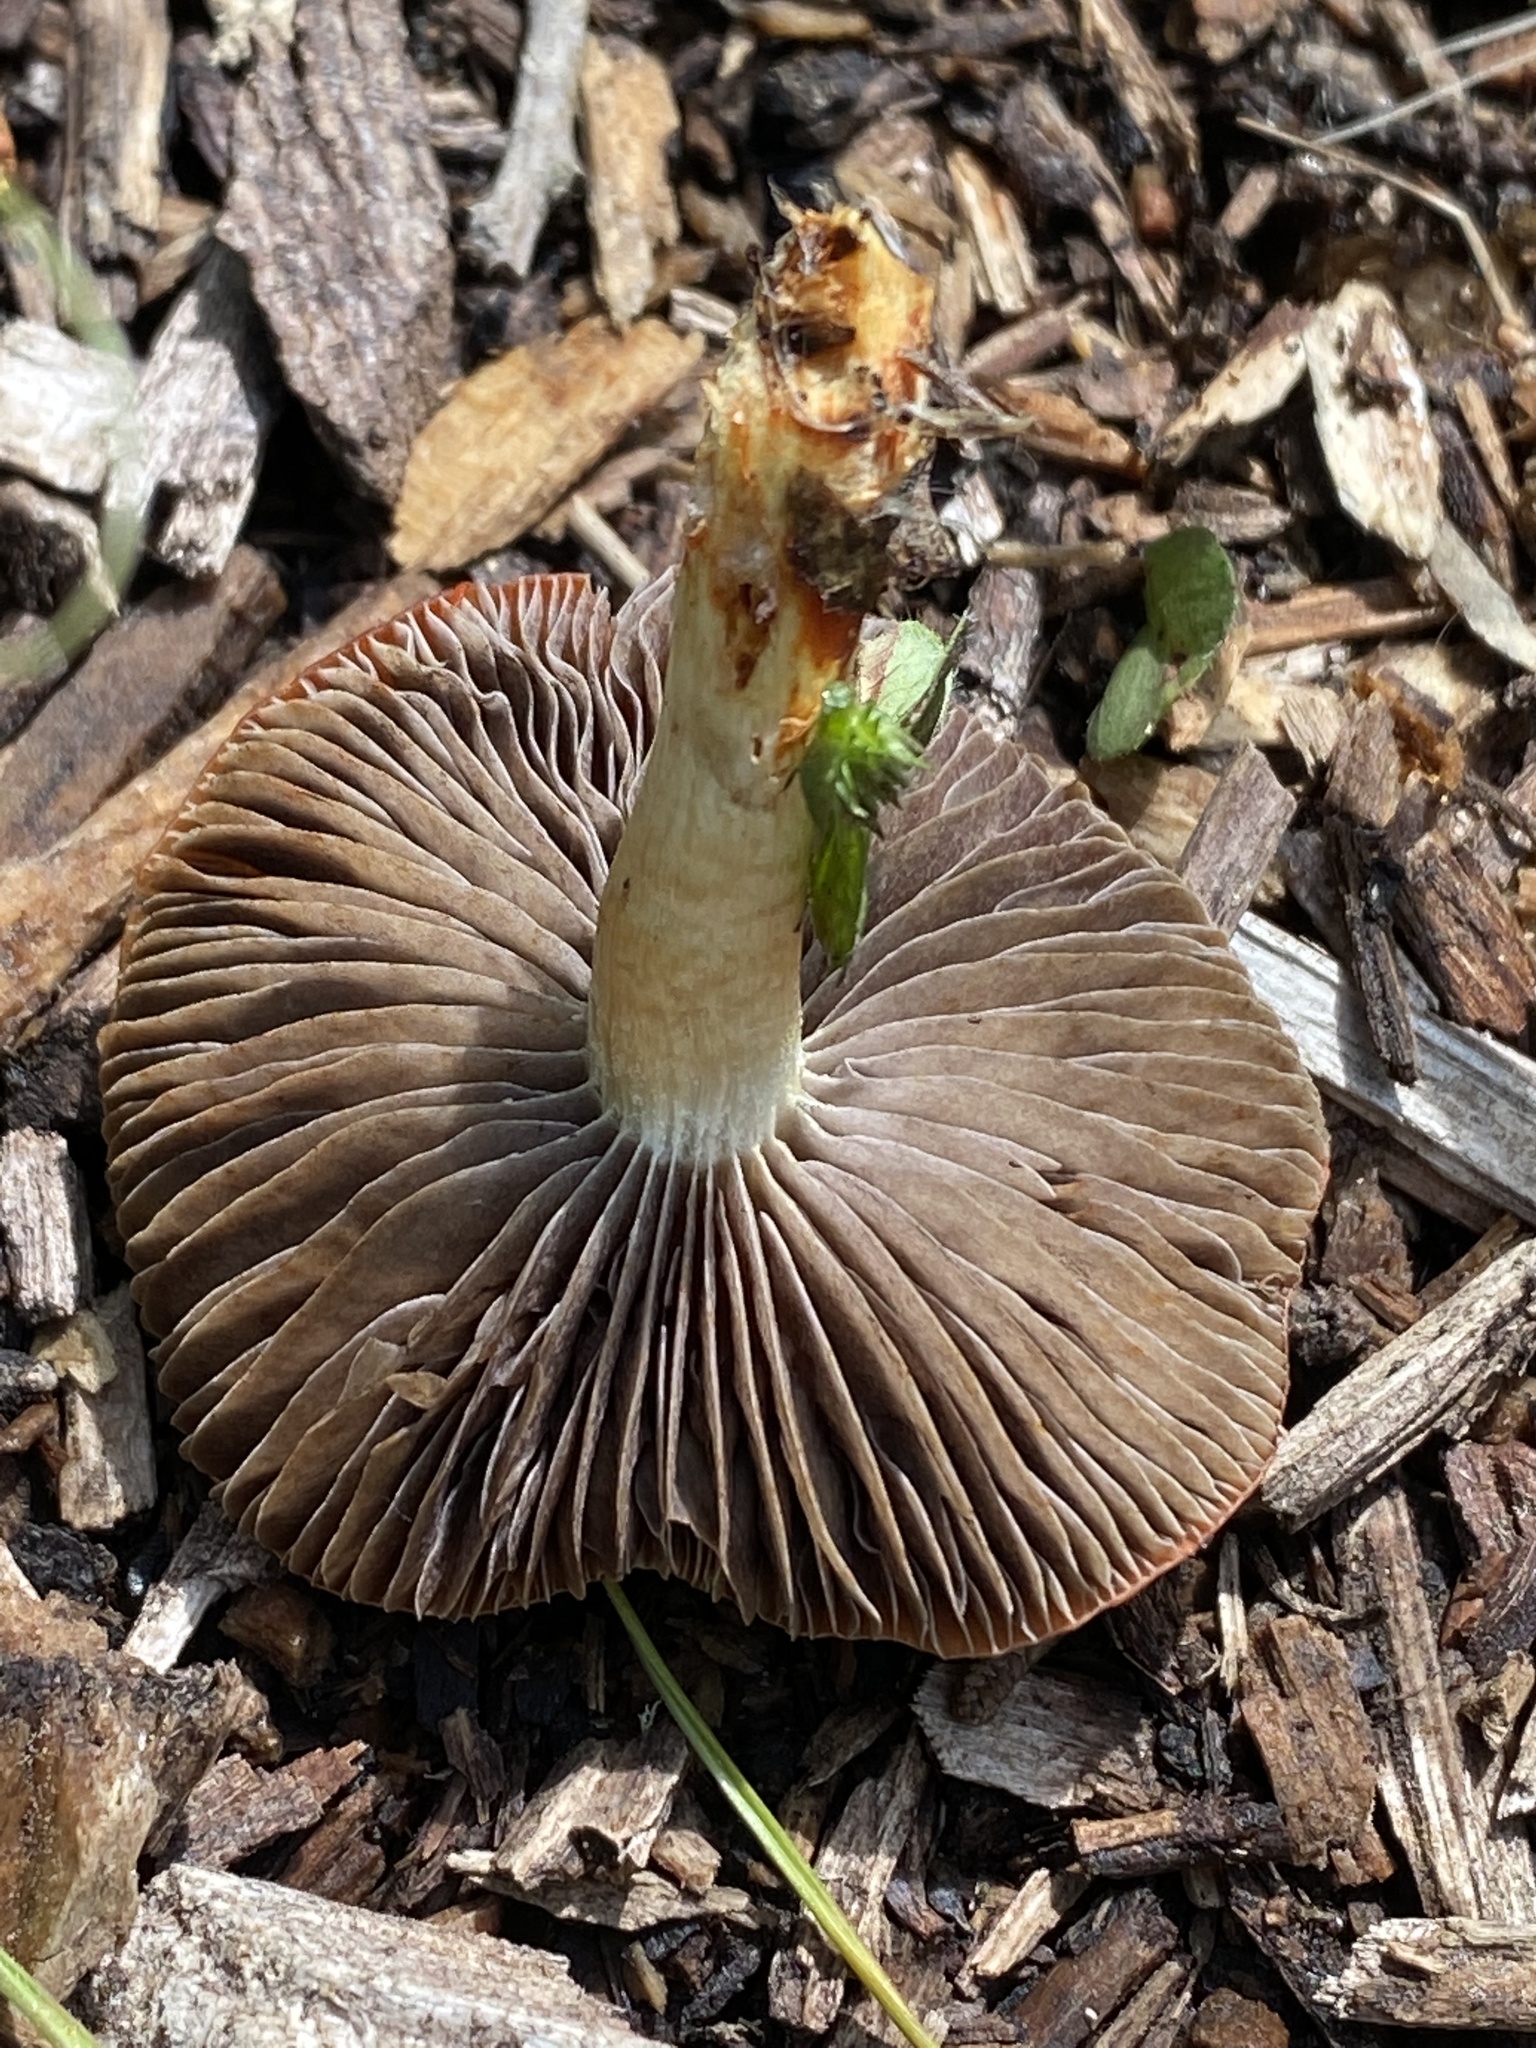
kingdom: Fungi
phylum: Basidiomycota
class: Agaricomycetes
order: Agaricales
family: Strophariaceae
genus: Leratiomyces
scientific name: Leratiomyces ceres
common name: Redlead roundhead
